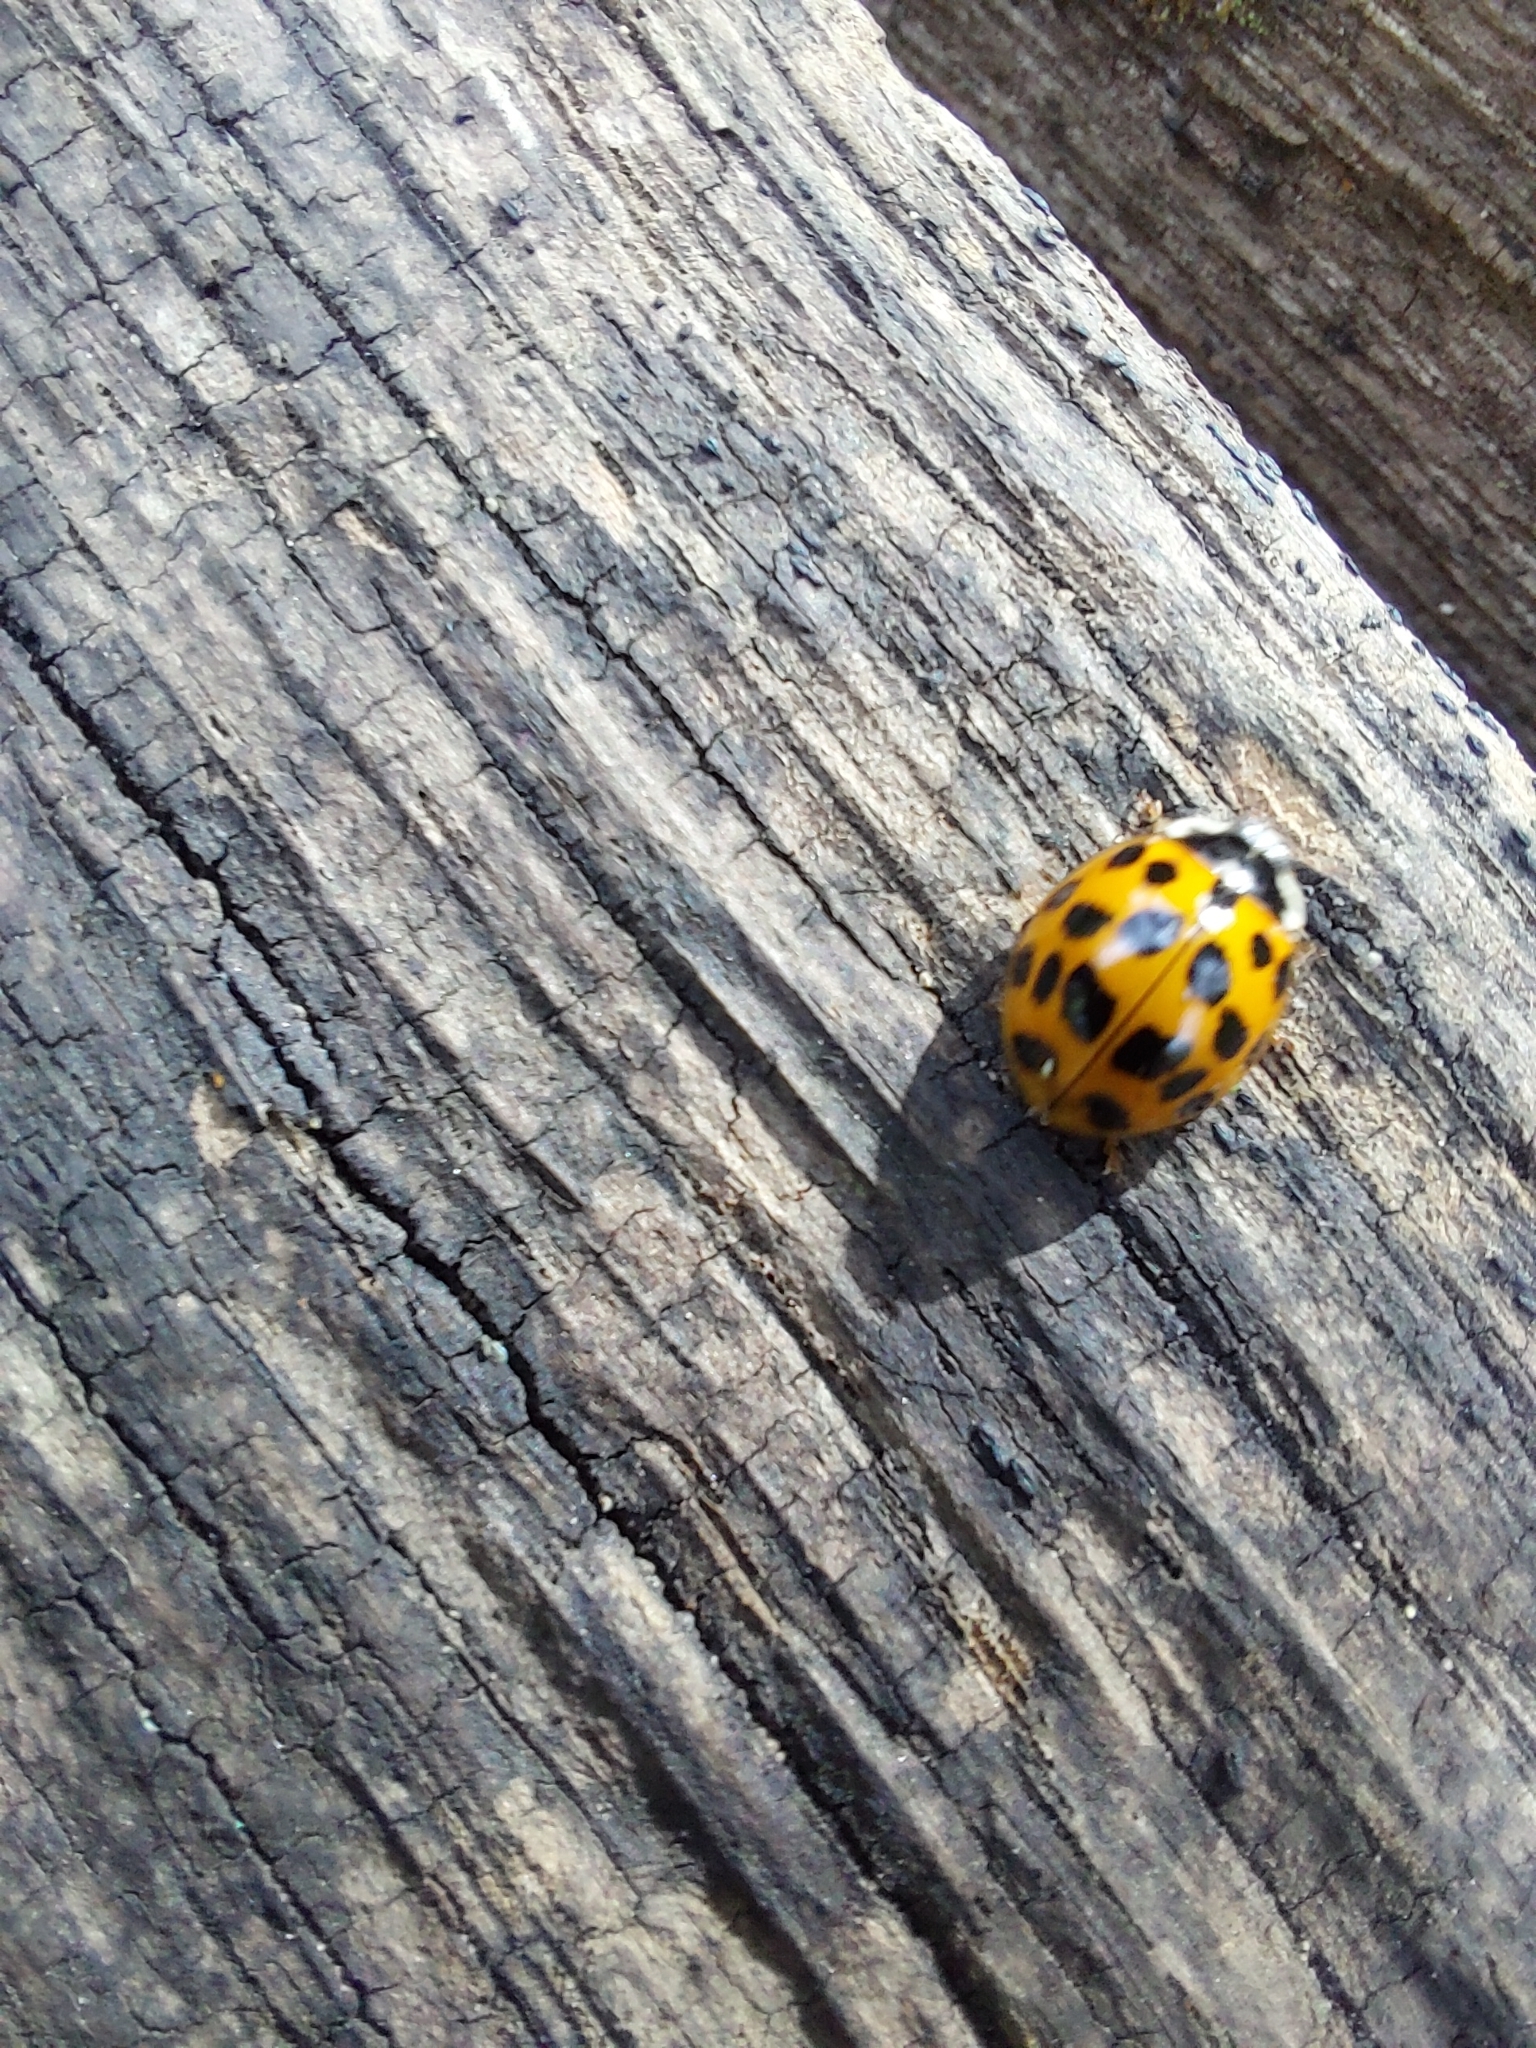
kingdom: Animalia
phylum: Arthropoda
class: Insecta
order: Coleoptera
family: Coccinellidae
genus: Harmonia
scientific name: Harmonia axyridis
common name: Harlequin ladybird
